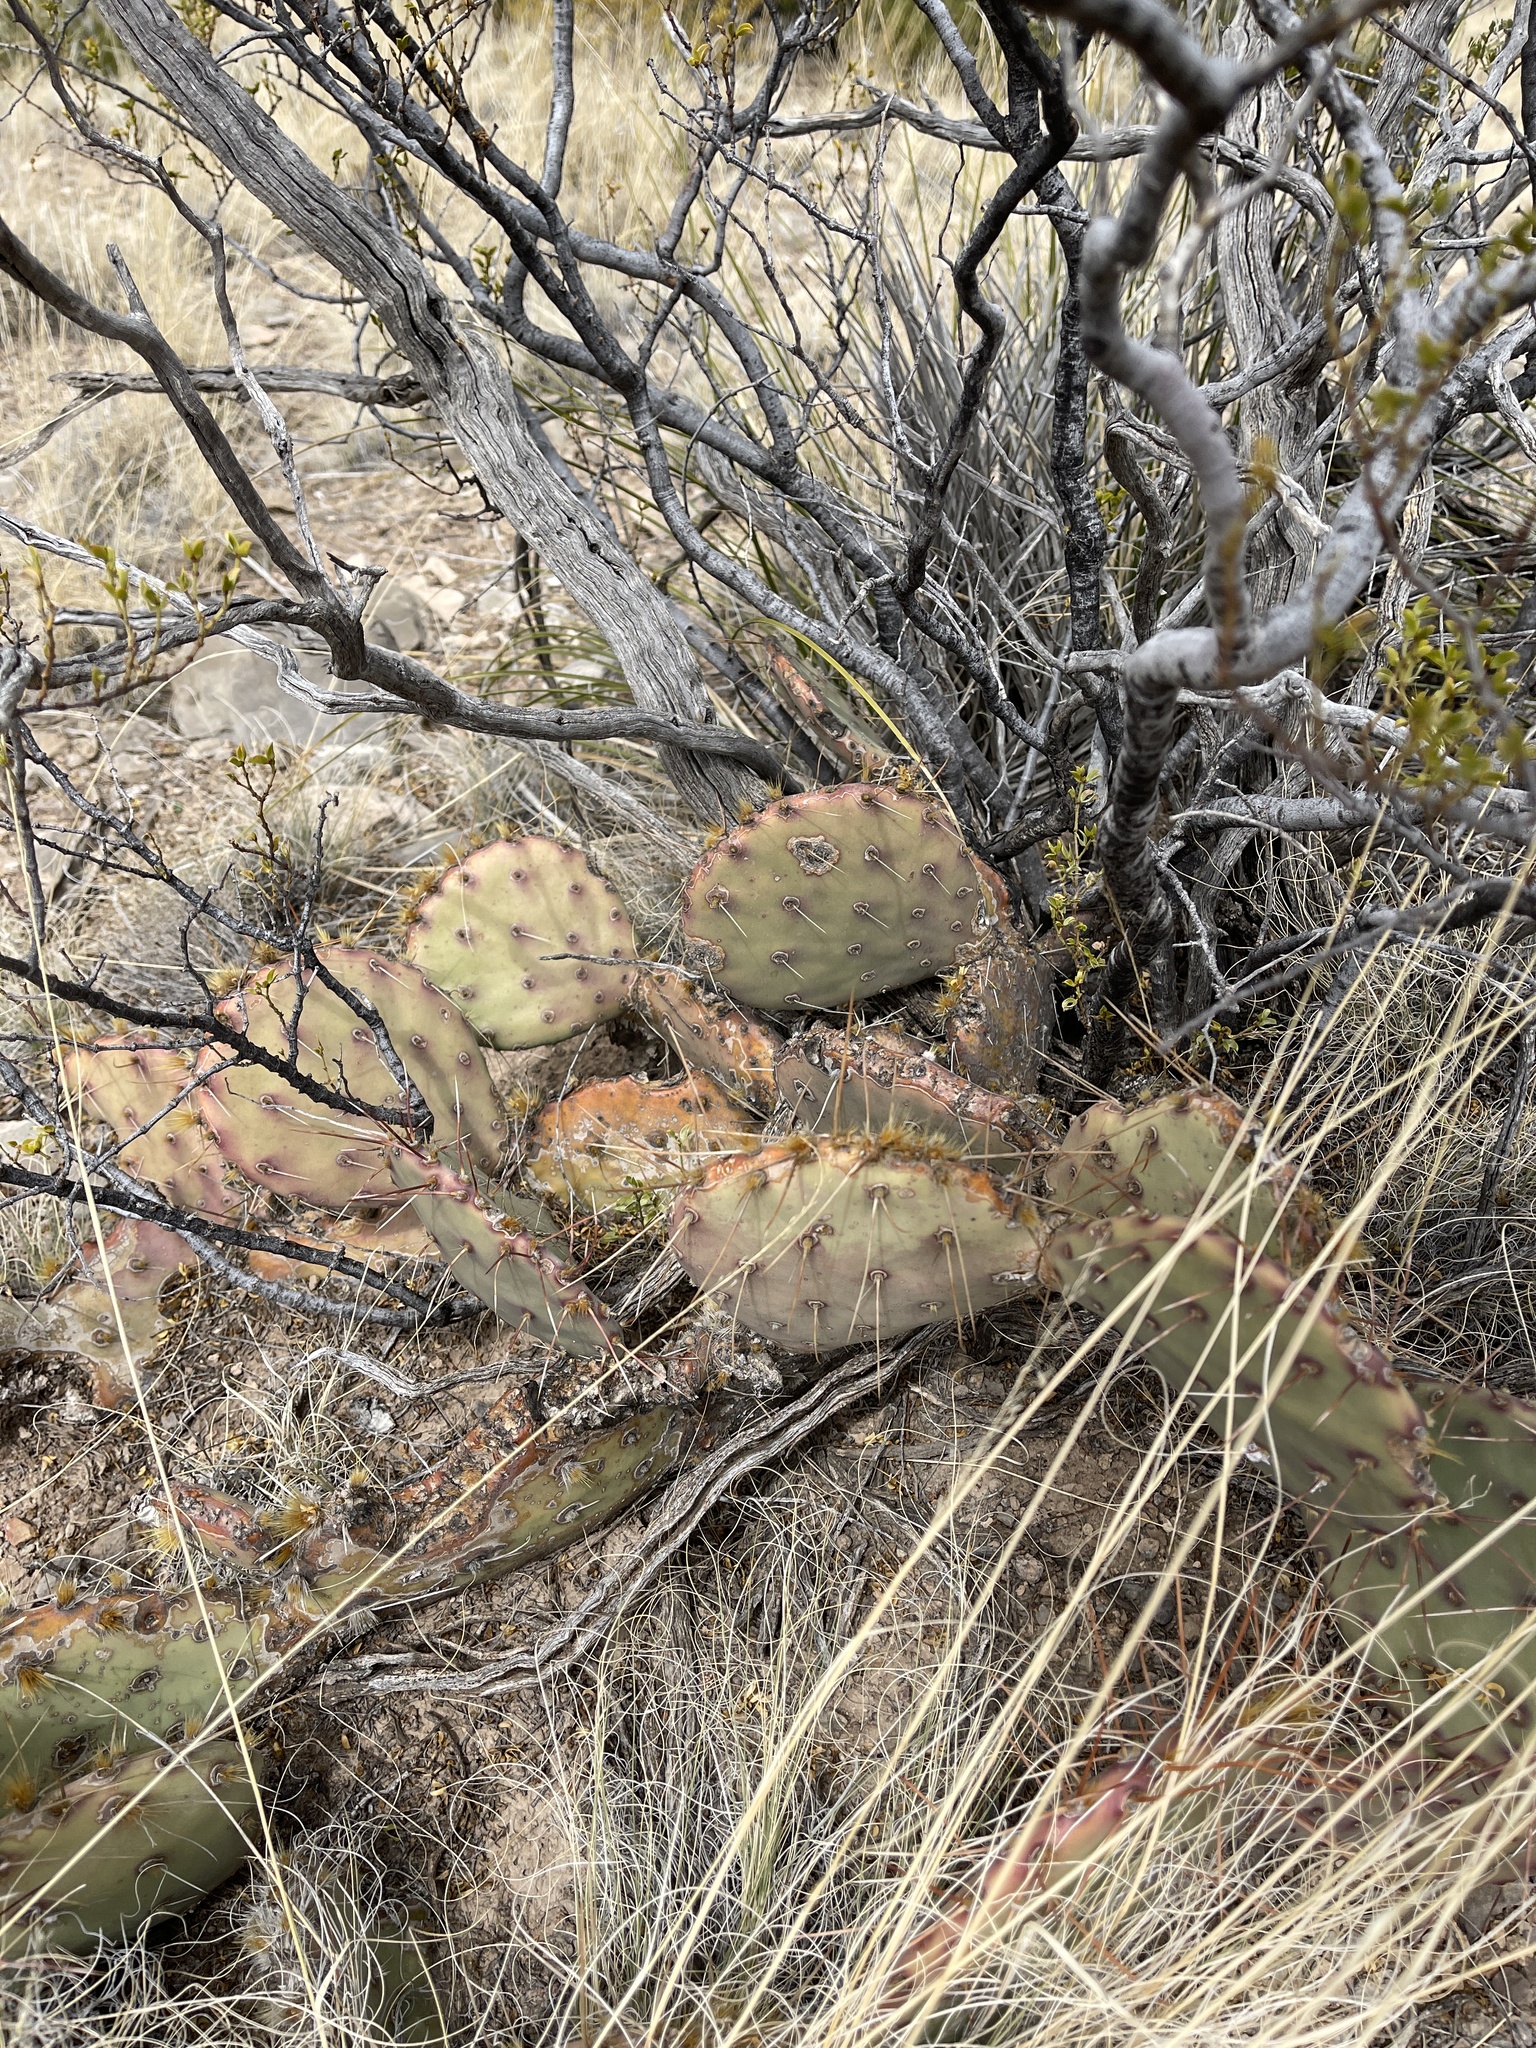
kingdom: Plantae
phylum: Tracheophyta
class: Magnoliopsida
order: Caryophyllales
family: Cactaceae
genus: Opuntia
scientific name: Opuntia phaeacantha
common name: New mexico prickly-pear
